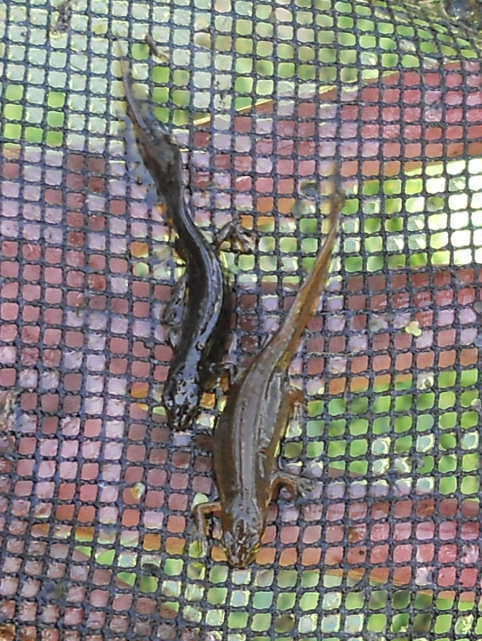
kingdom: Animalia
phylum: Chordata
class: Amphibia
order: Caudata
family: Salamandridae
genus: Lissotriton
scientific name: Lissotriton vulgaris
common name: Smooth newt
